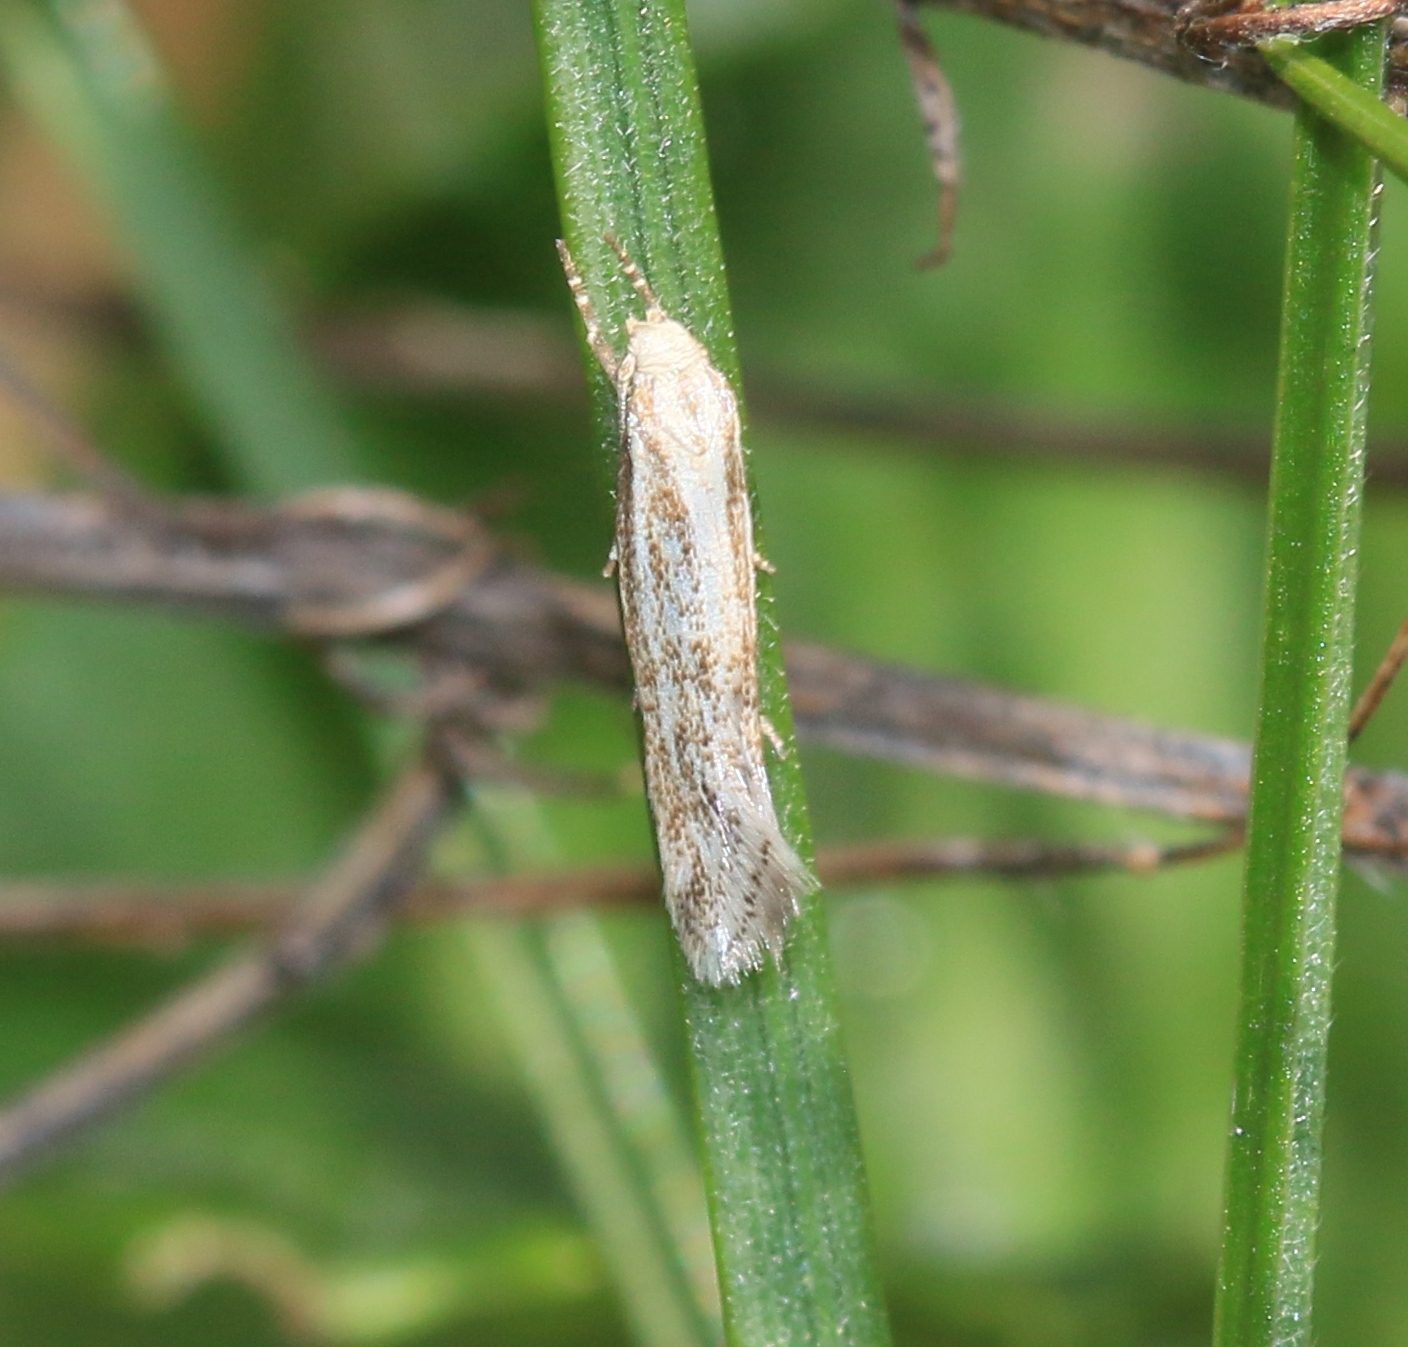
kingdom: Animalia
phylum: Arthropoda
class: Insecta
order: Lepidoptera
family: Elachistidae
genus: Elachista
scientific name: Elachista rufocinerea
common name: Red-brindled dwarf
